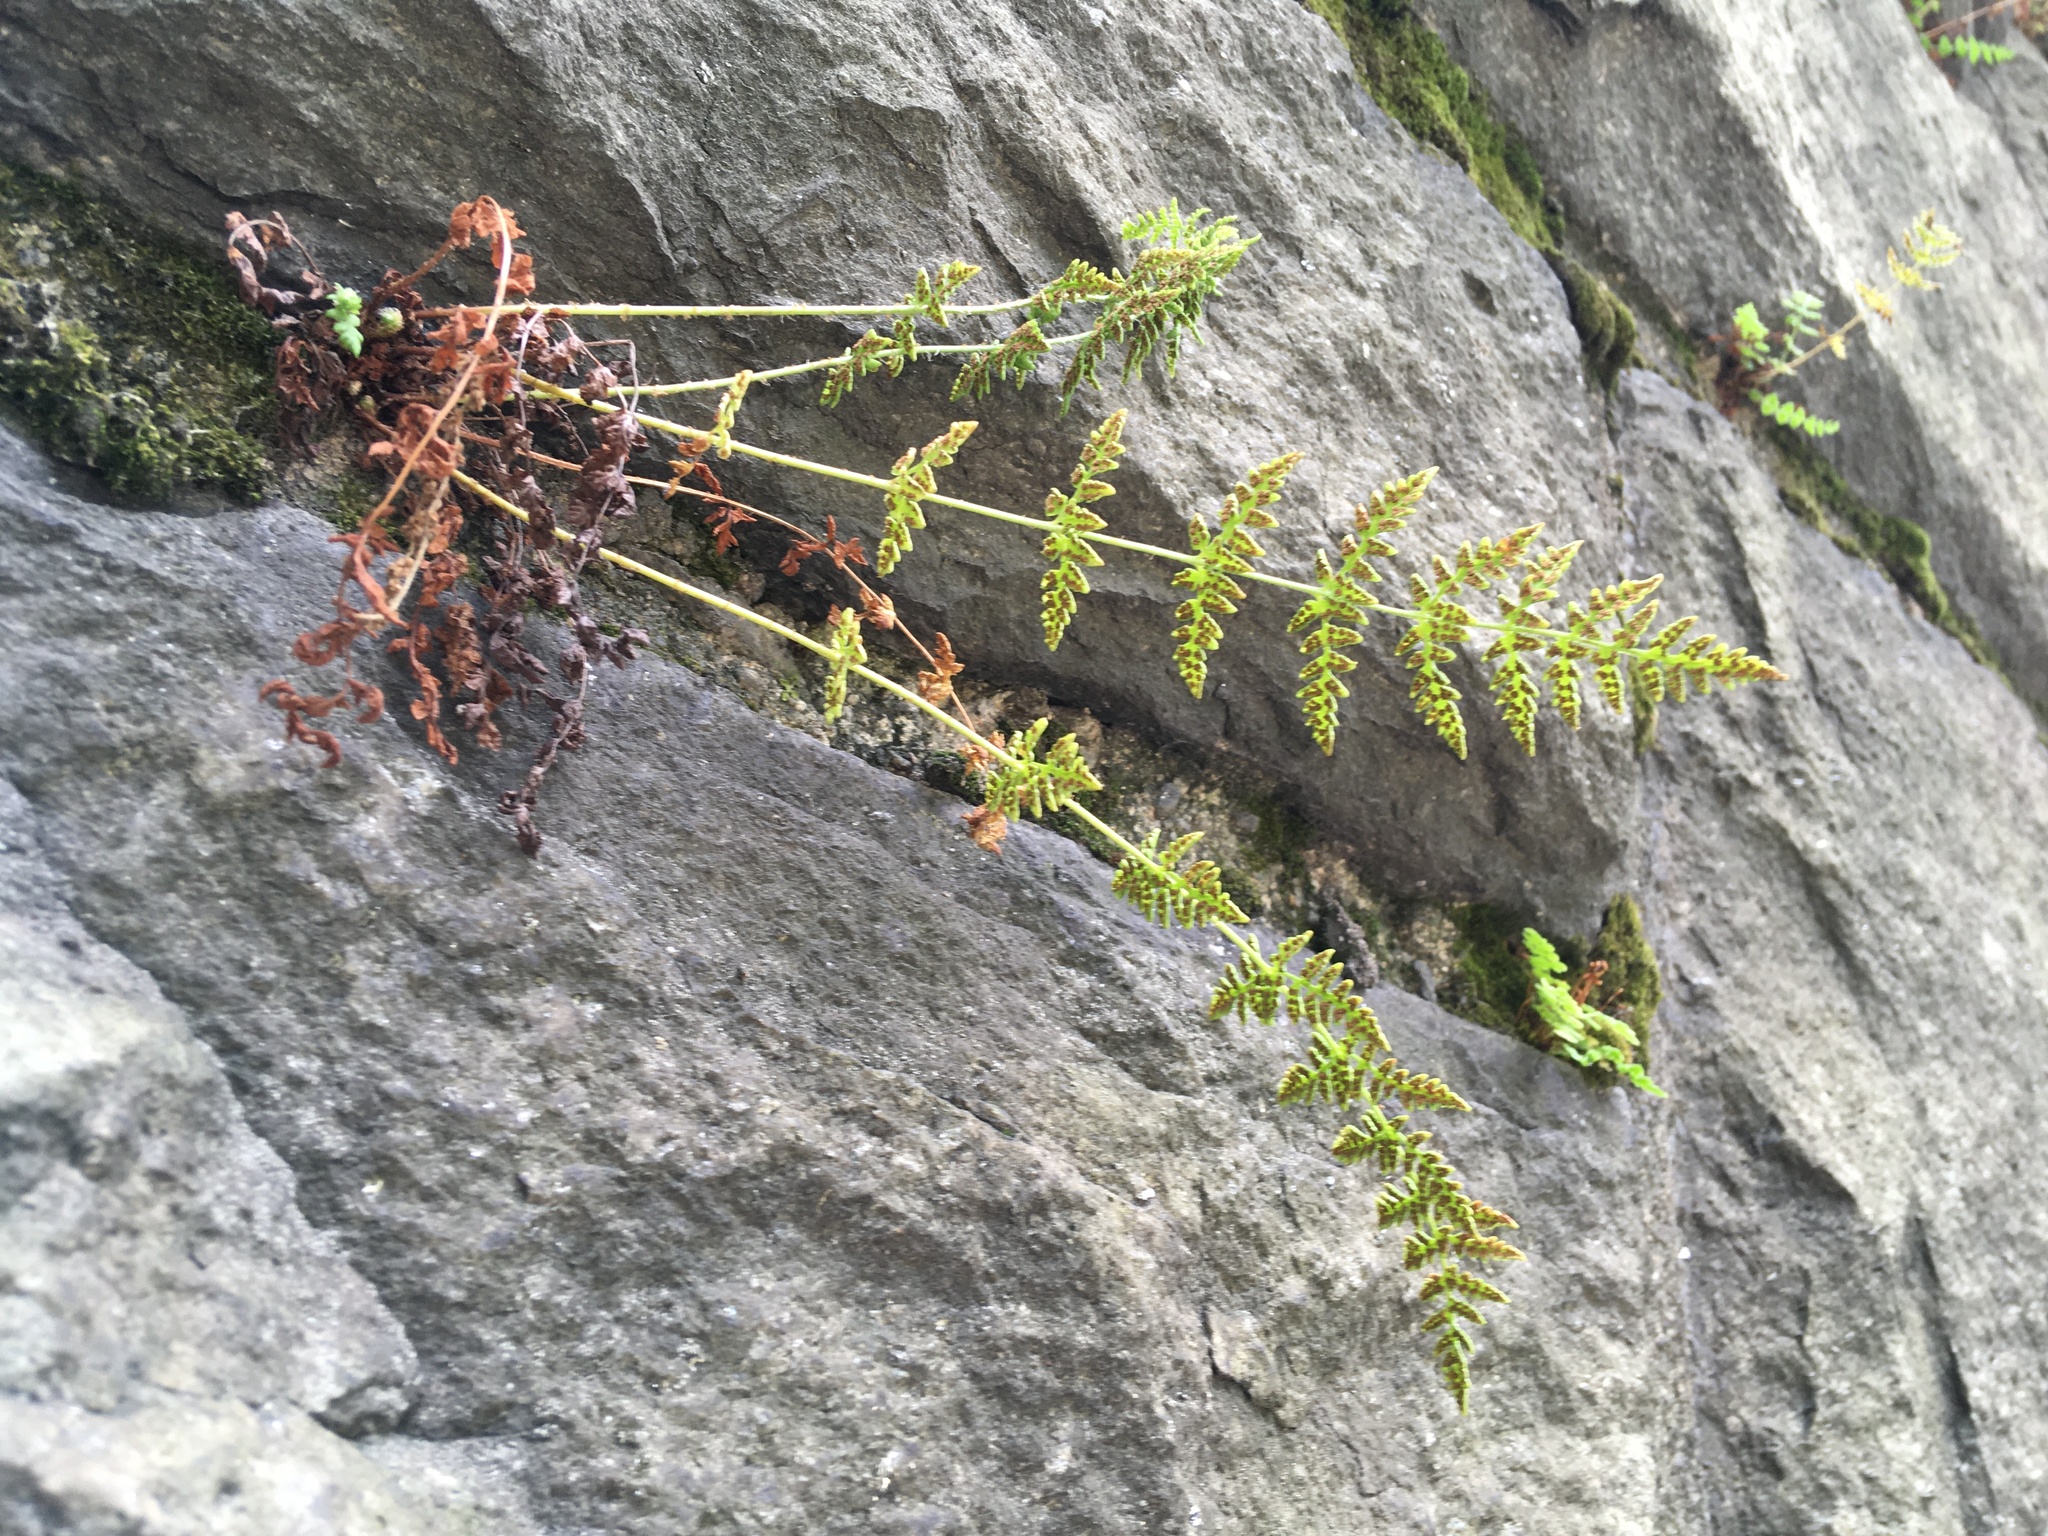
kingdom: Plantae
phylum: Tracheophyta
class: Polypodiopsida
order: Polypodiales
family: Woodsiaceae
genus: Physematium
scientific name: Physematium obtusum
